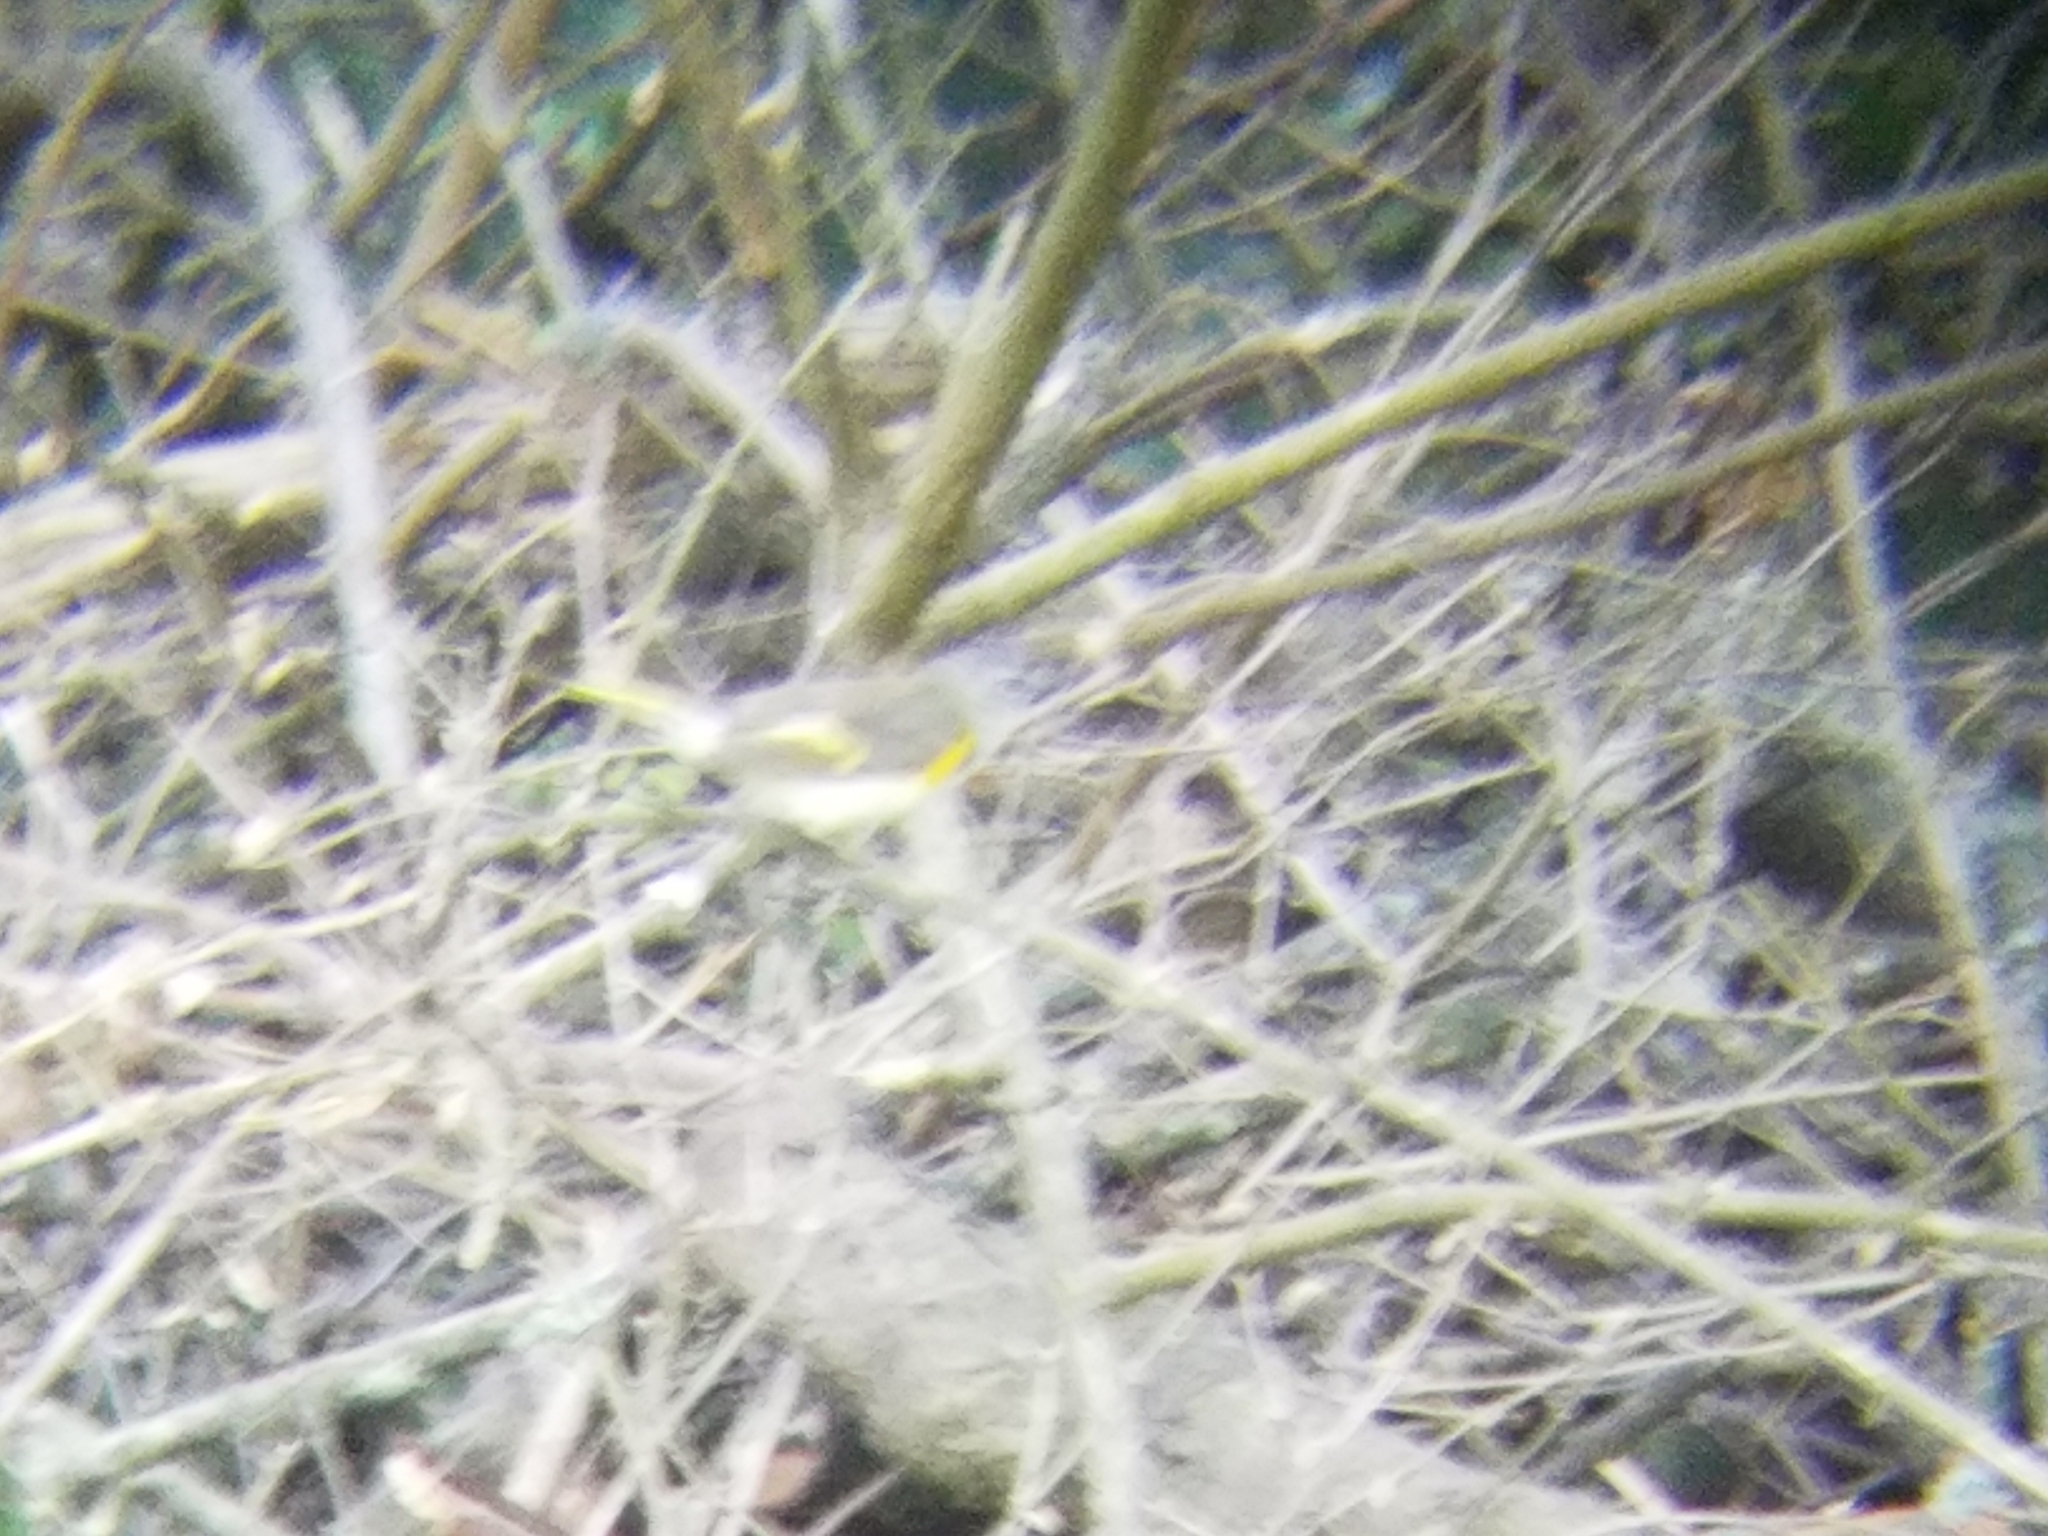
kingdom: Animalia
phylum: Chordata
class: Aves
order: Passeriformes
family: Parulidae
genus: Setophaga
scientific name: Setophaga ruticilla
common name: American redstart
